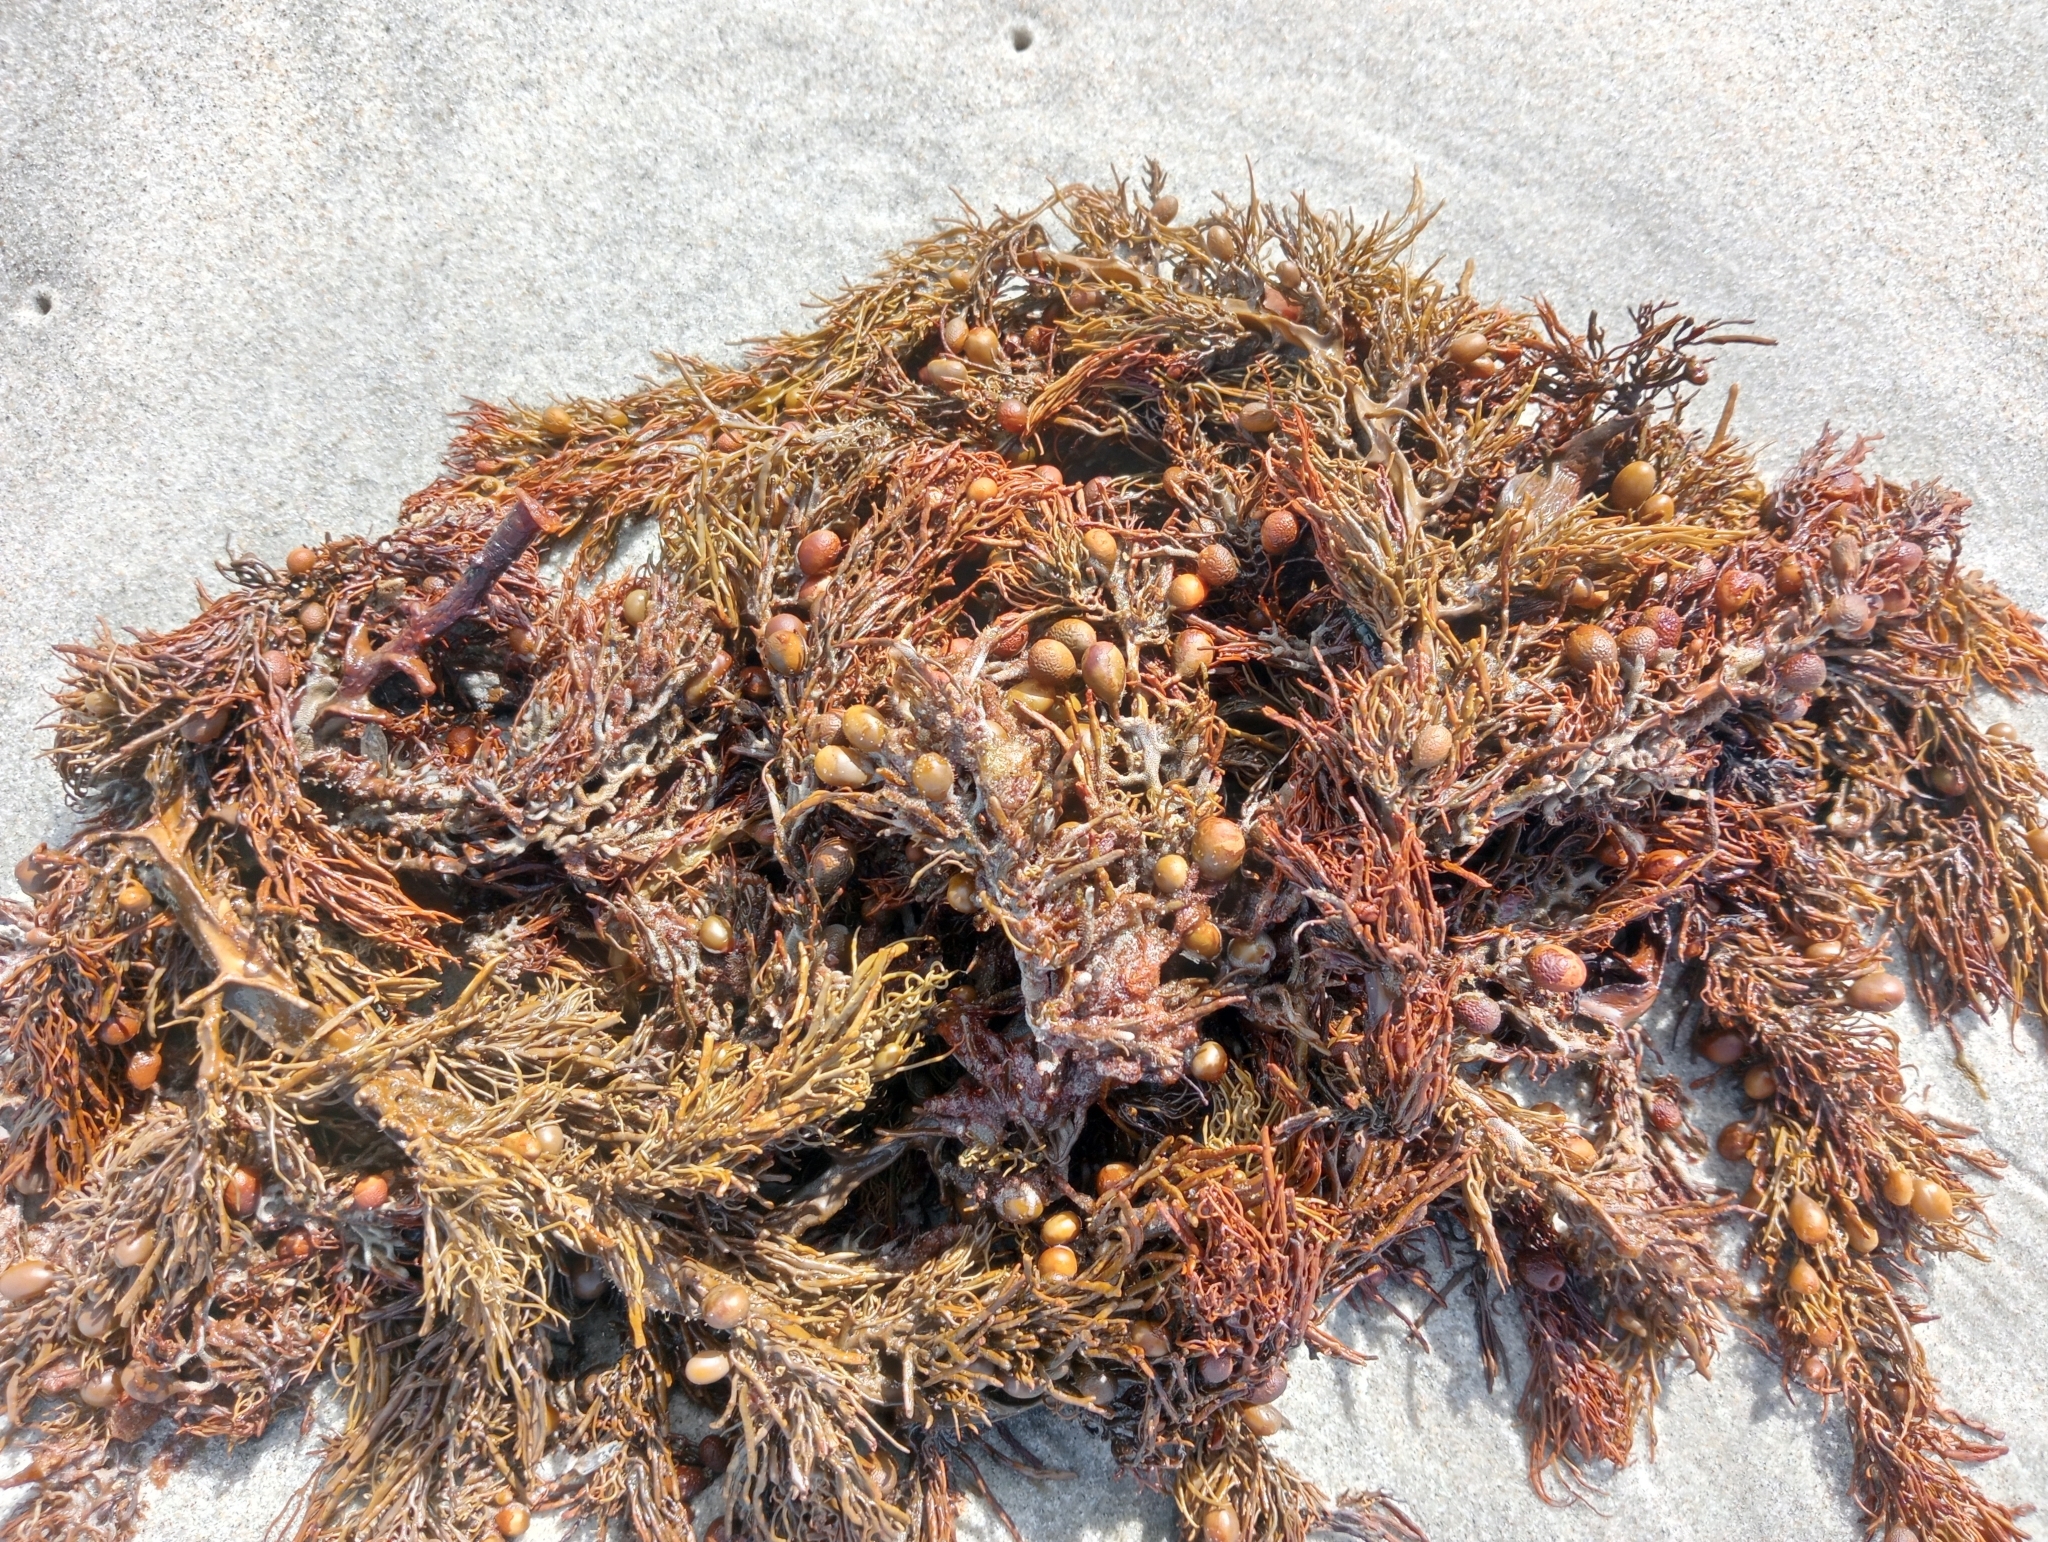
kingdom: Chromista
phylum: Ochrophyta
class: Phaeophyceae
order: Fucales
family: Sargassaceae
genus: Cystophora
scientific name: Cystophora retroflexa
